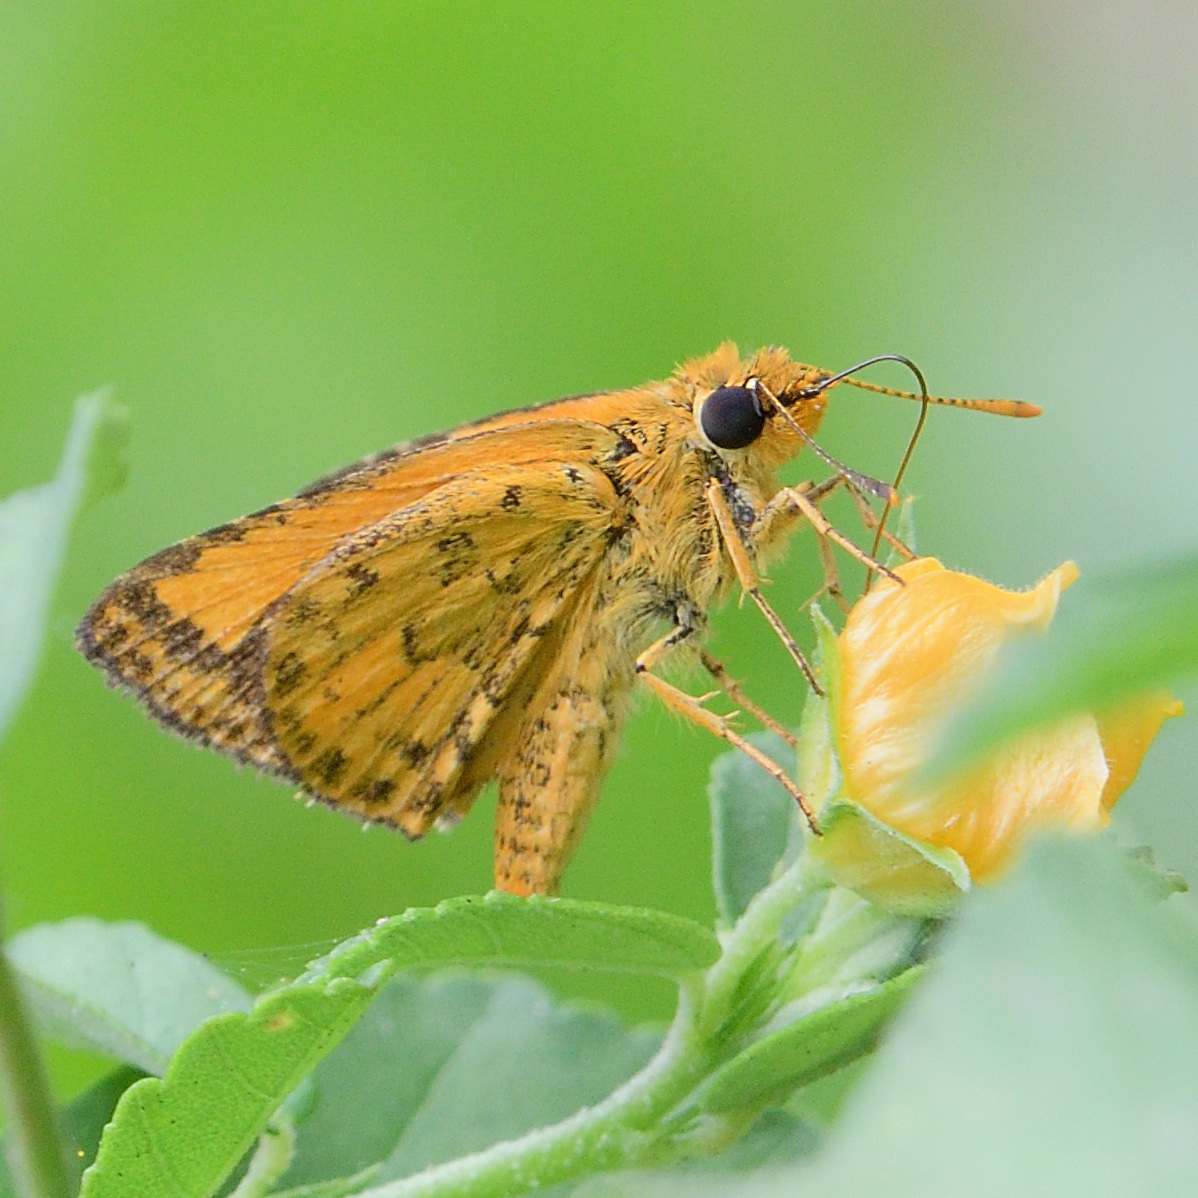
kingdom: Animalia
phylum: Arthropoda
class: Insecta
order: Lepidoptera
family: Hesperiidae
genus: Ampittia
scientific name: Ampittia dioscorides
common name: Common bush hopper
